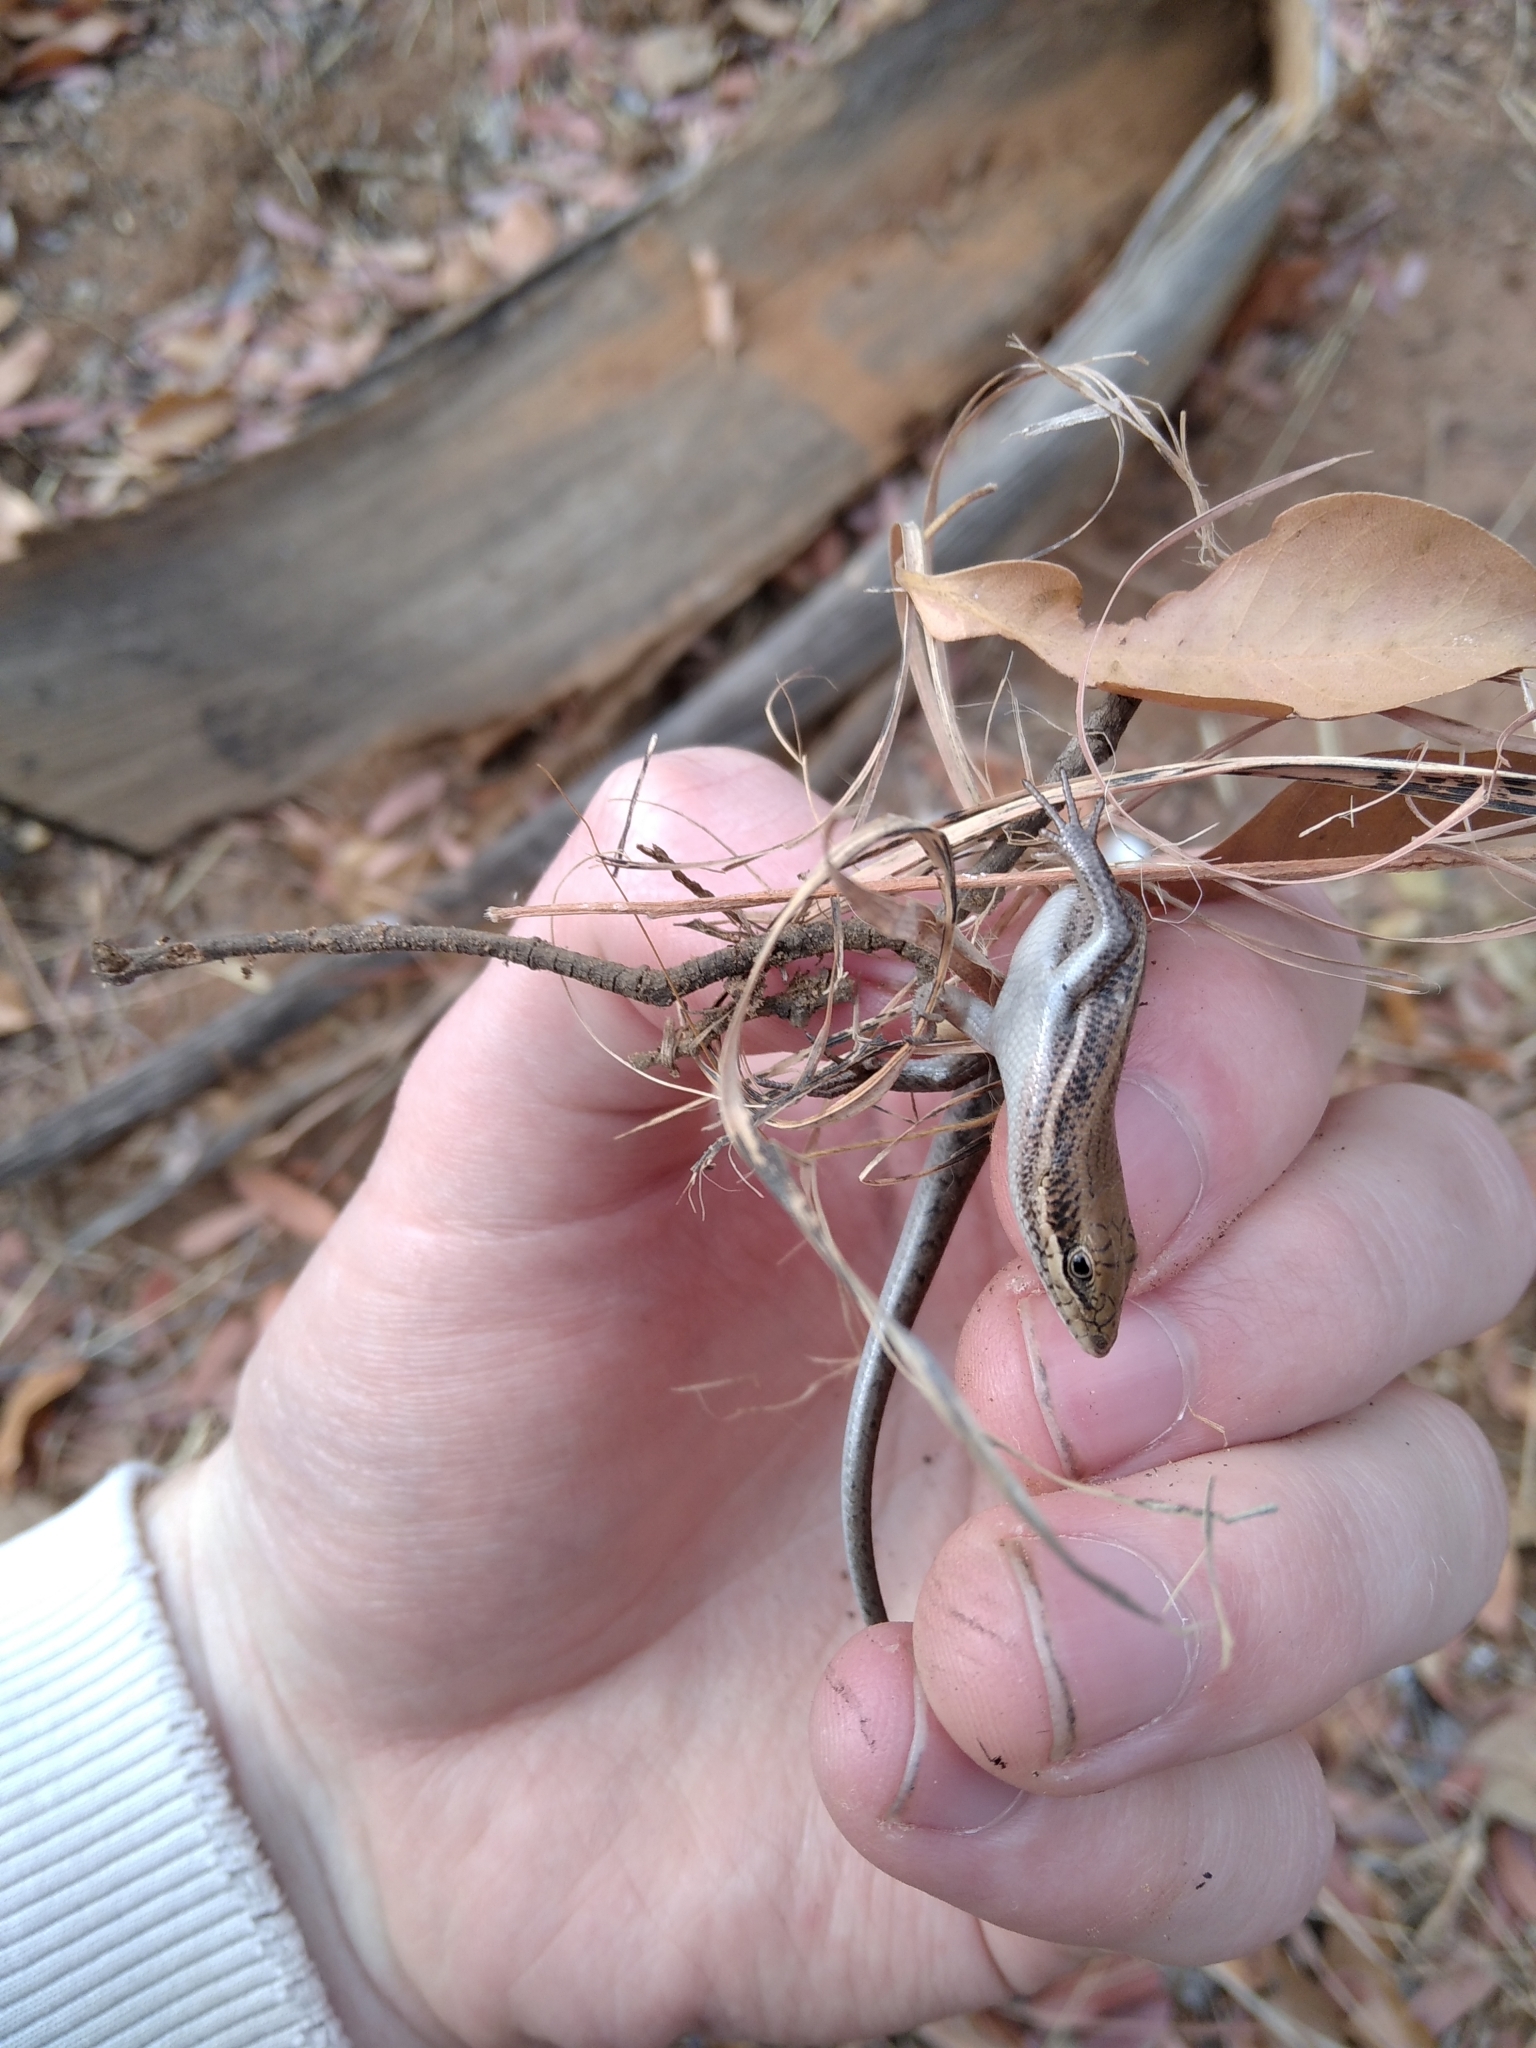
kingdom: Animalia
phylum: Chordata
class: Squamata
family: Scincidae
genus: Trachylepis
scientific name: Trachylepis varia
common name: Eastern variable skink
